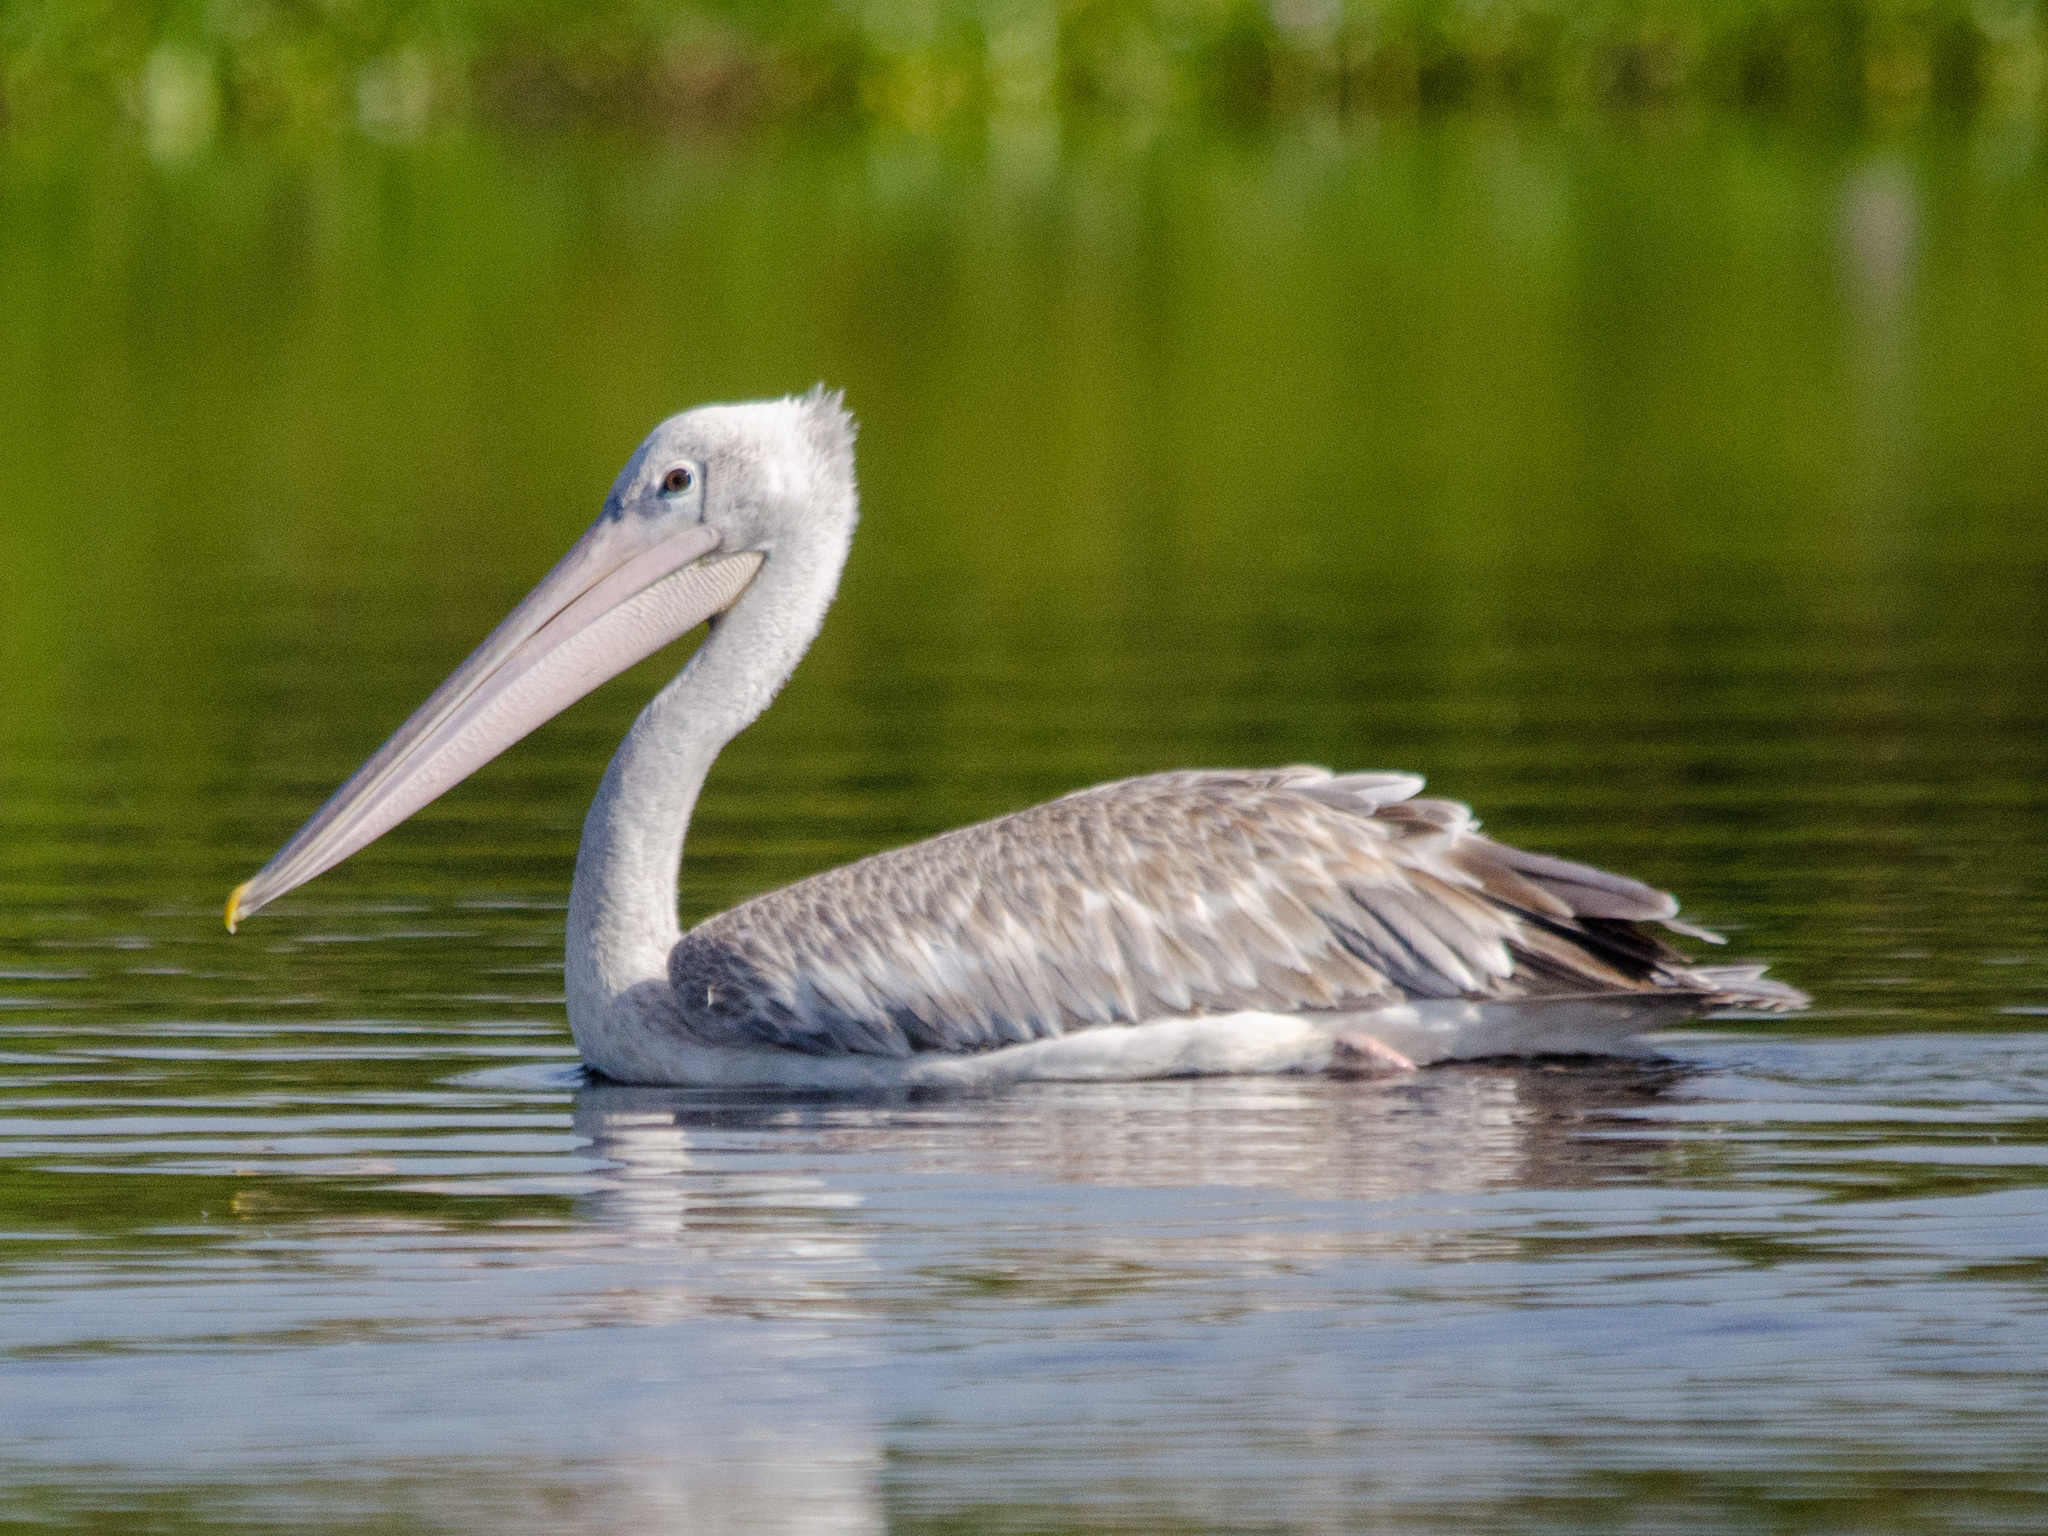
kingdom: Animalia
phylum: Chordata
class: Aves
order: Pelecaniformes
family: Pelecanidae
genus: Pelecanus
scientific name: Pelecanus rufescens
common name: Pink-backed pelican
